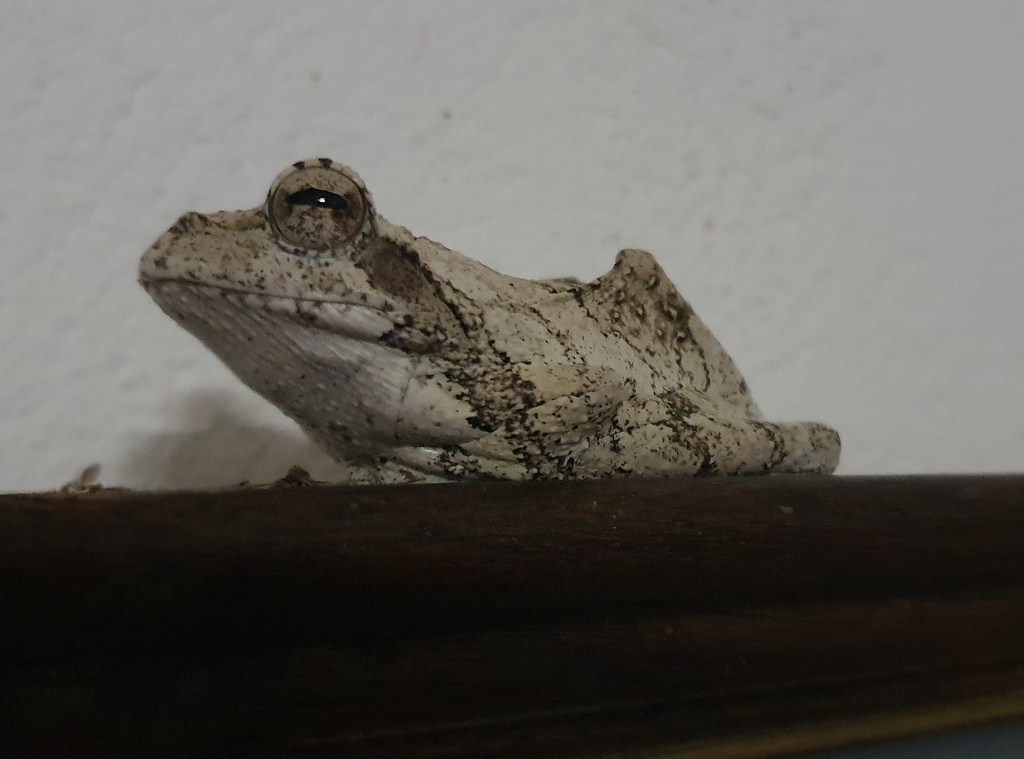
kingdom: Animalia
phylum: Chordata
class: Amphibia
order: Anura
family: Rhacophoridae
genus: Chiromantis
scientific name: Chiromantis xerampelina
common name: African gray treefrog
